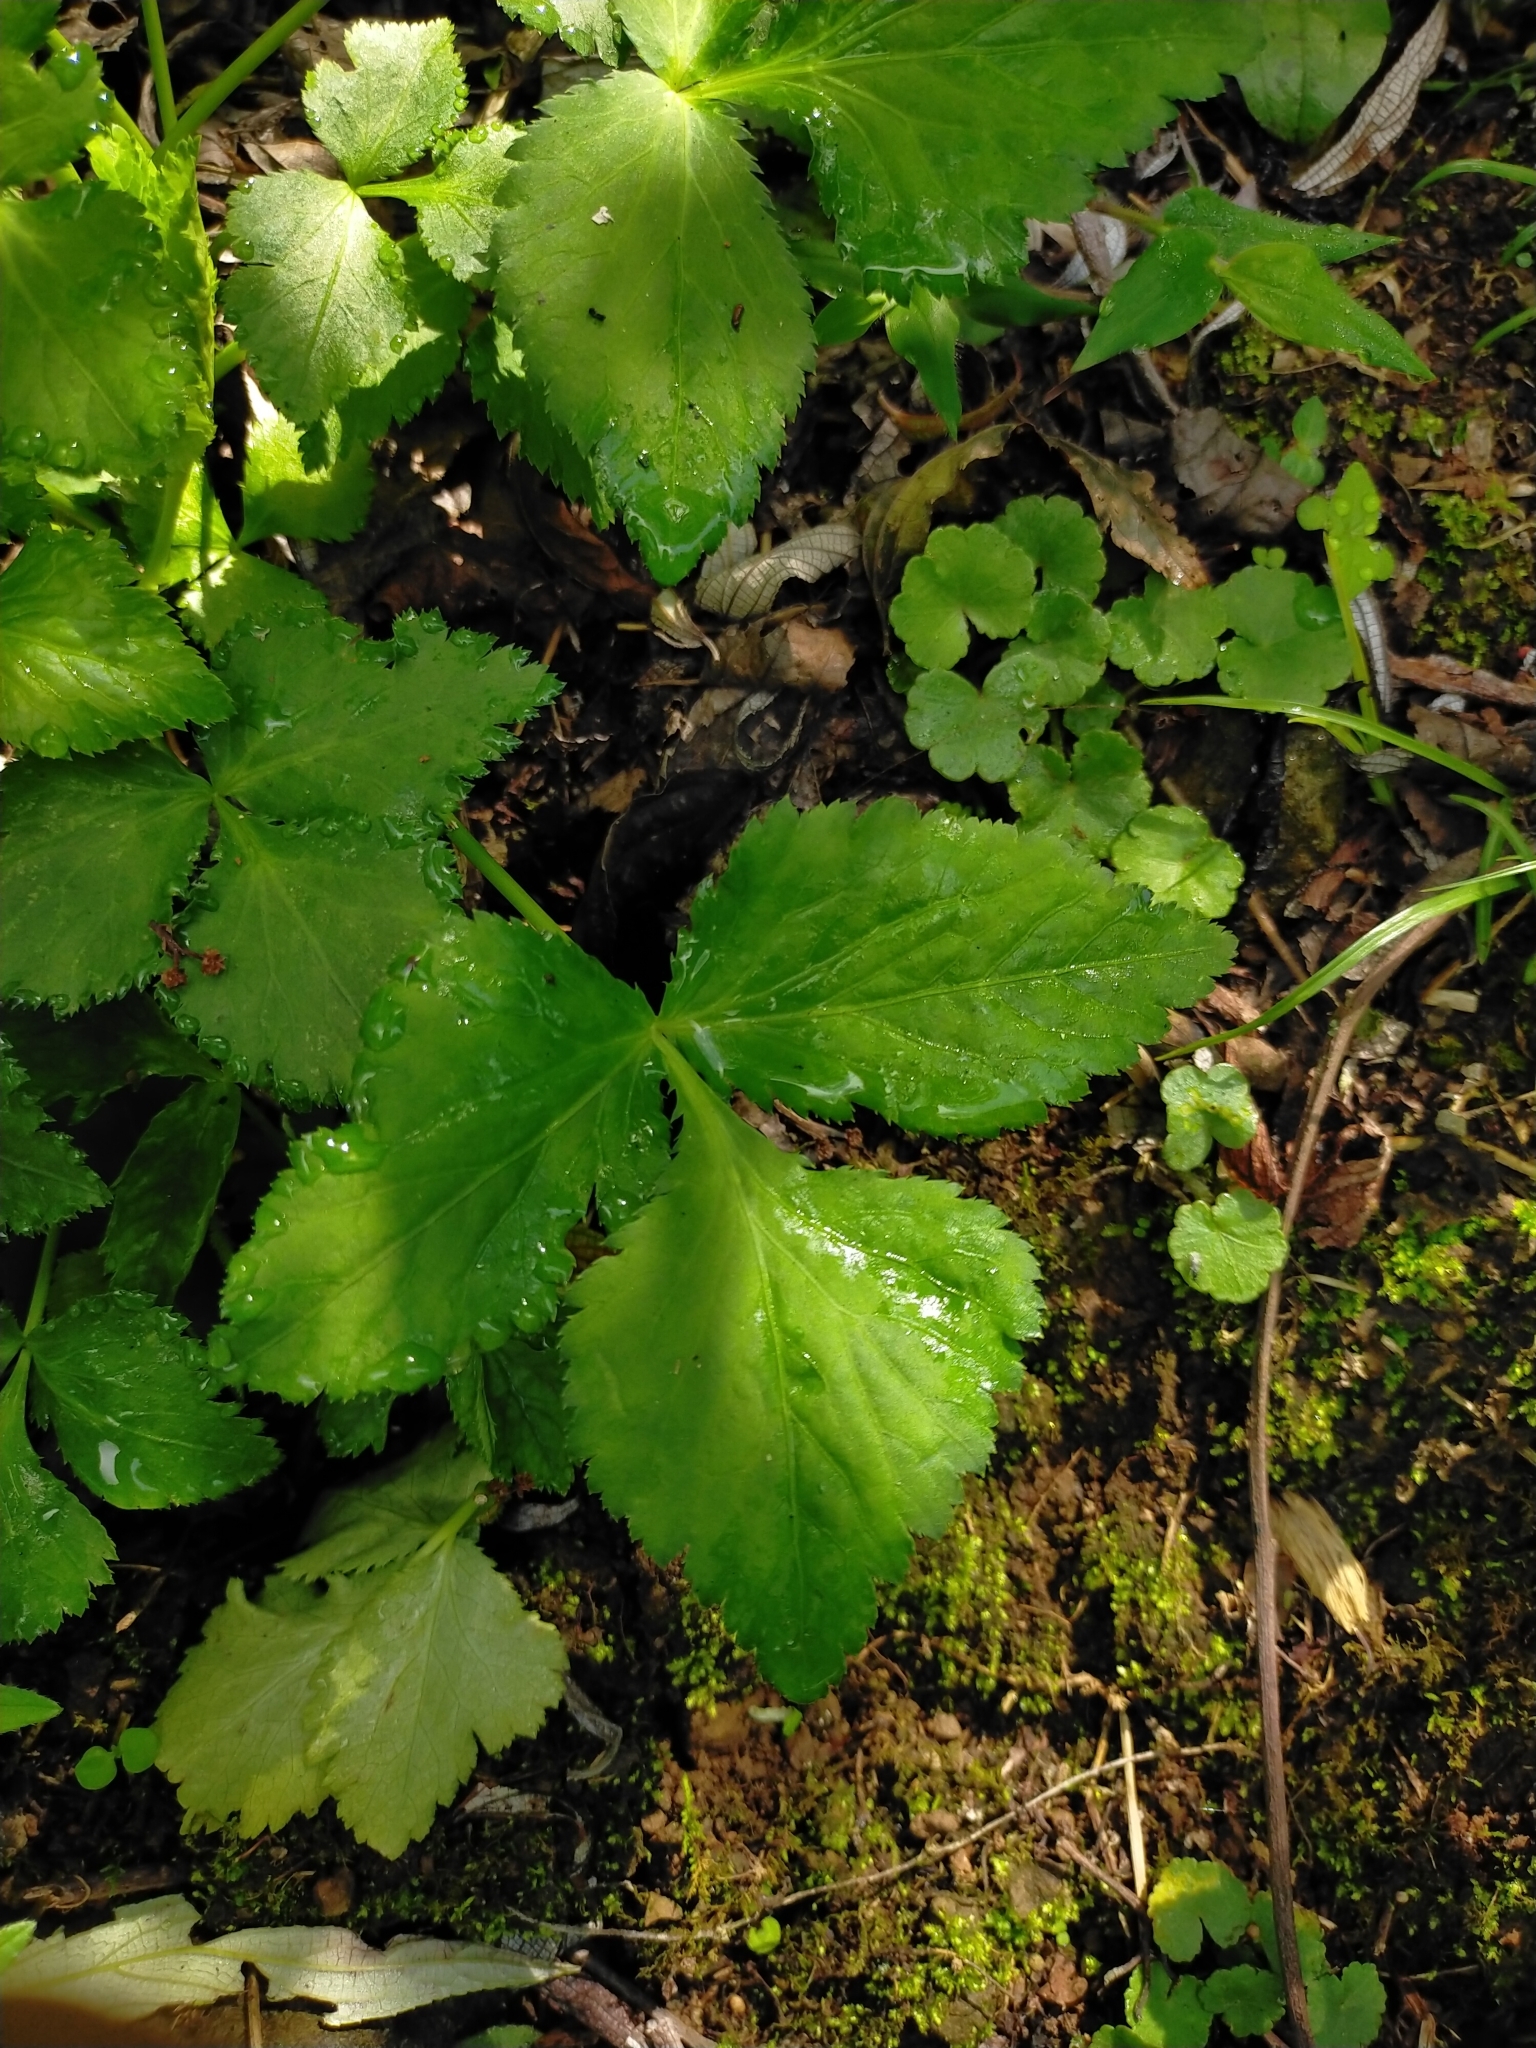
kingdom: Plantae
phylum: Tracheophyta
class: Magnoliopsida
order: Apiales
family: Apiaceae
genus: Cryptotaenia
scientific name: Cryptotaenia japonica
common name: Japanese cryptotaenia
